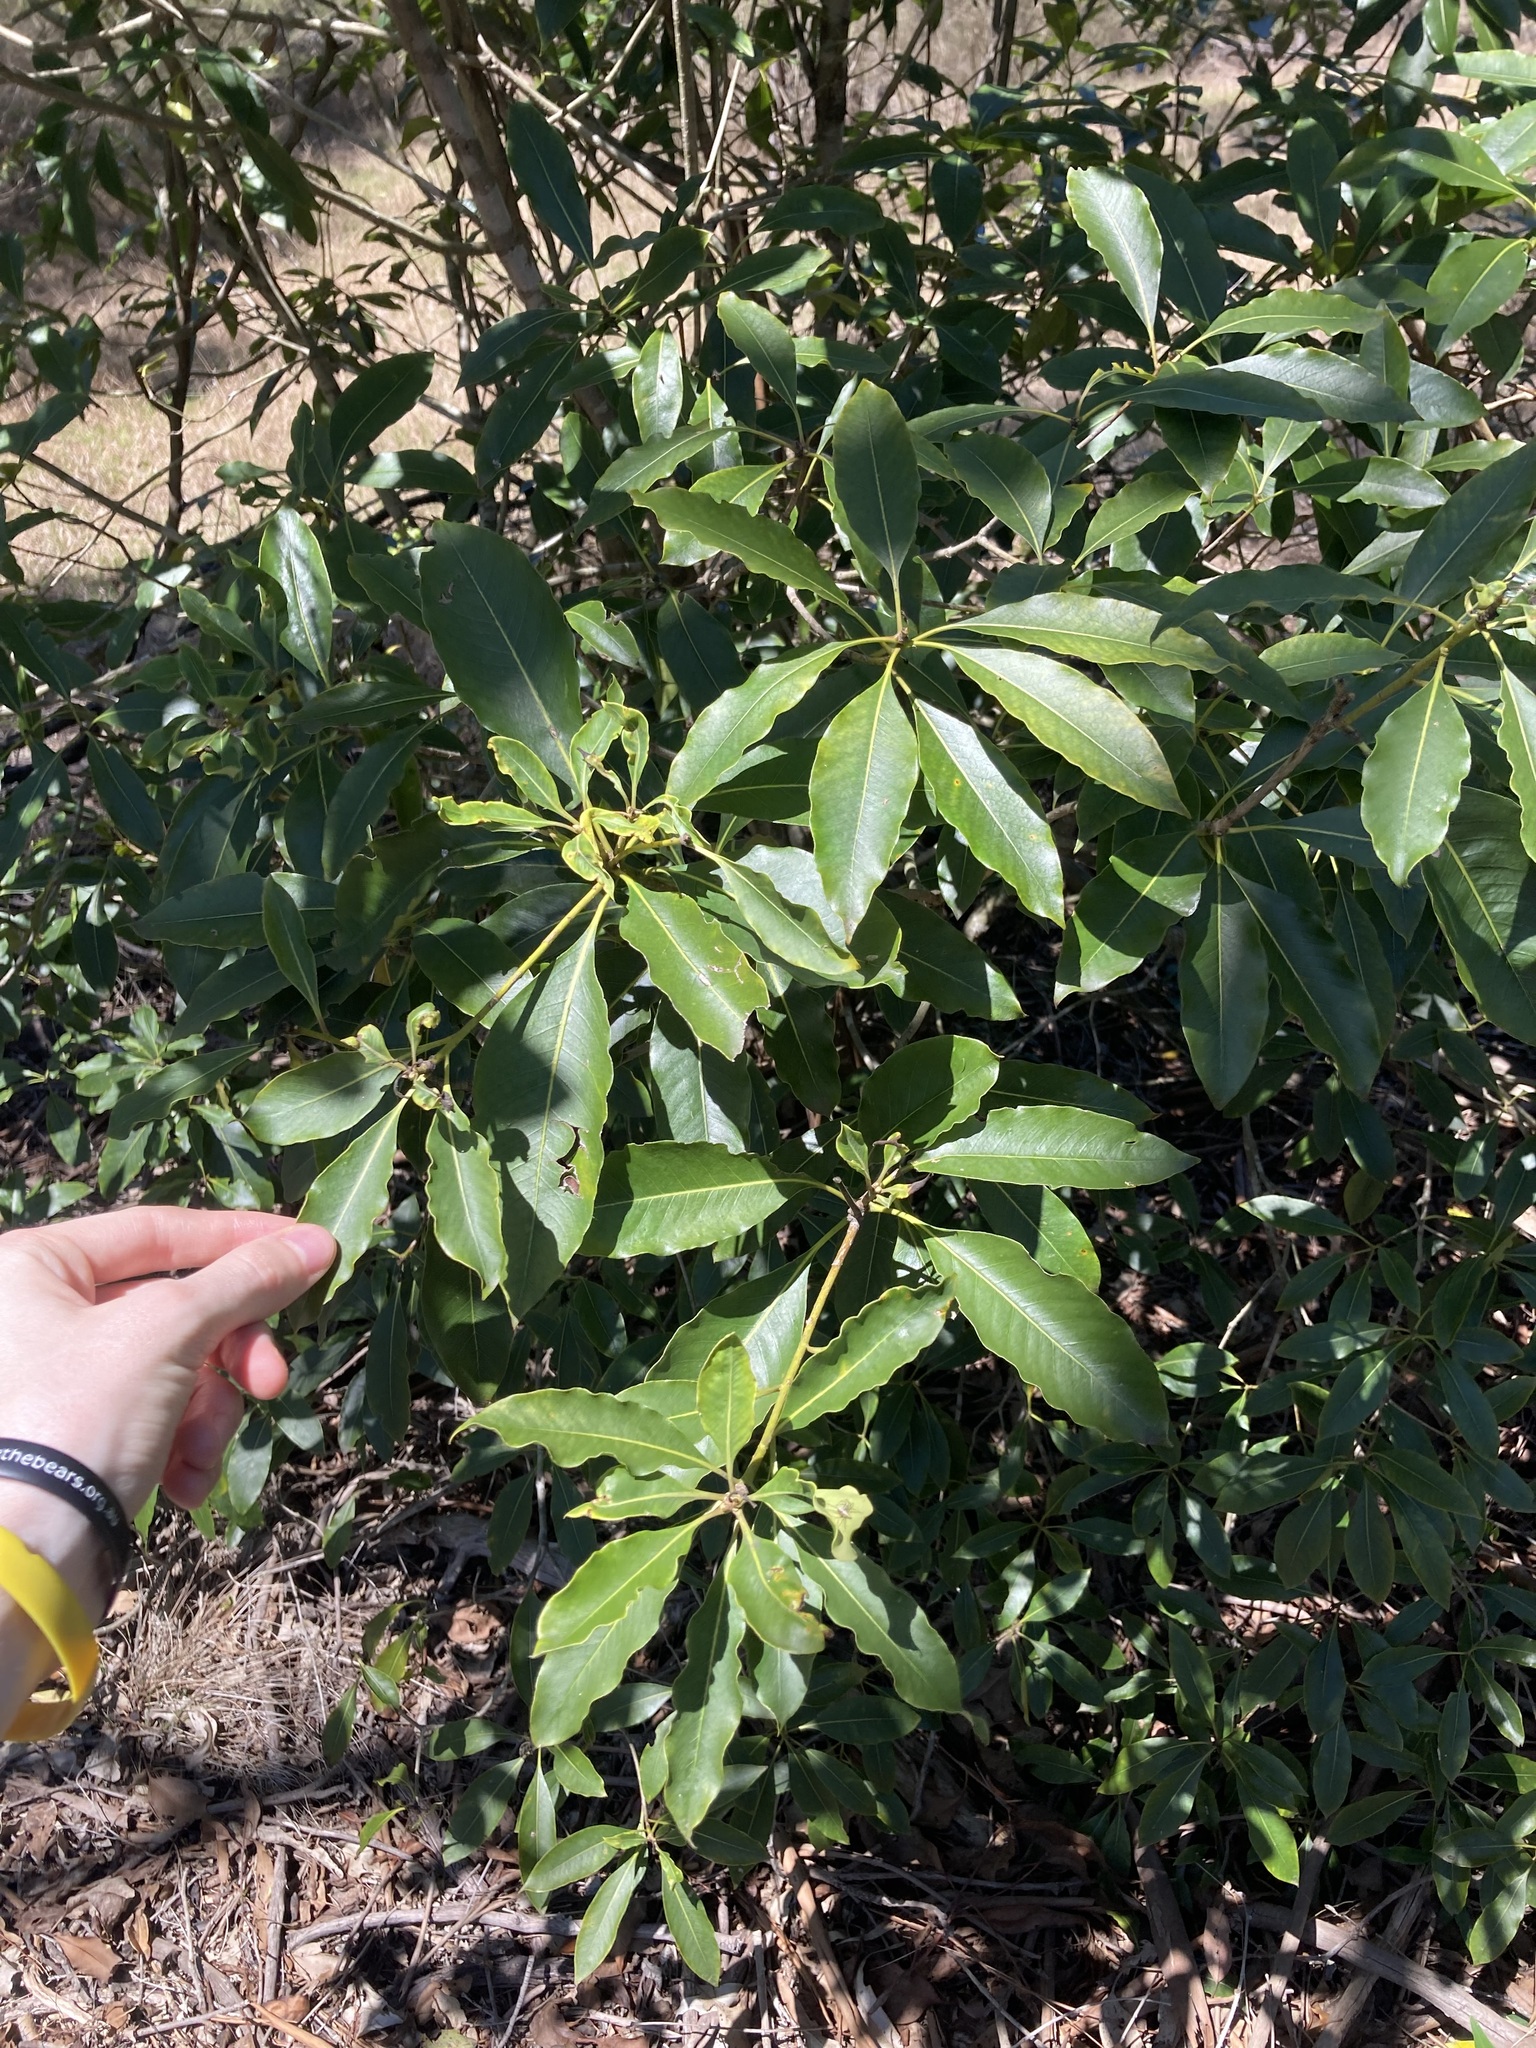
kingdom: Plantae
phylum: Tracheophyta
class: Magnoliopsida
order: Apiales
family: Pittosporaceae
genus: Pittosporum
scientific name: Pittosporum undulatum
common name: Australian cheesewood
